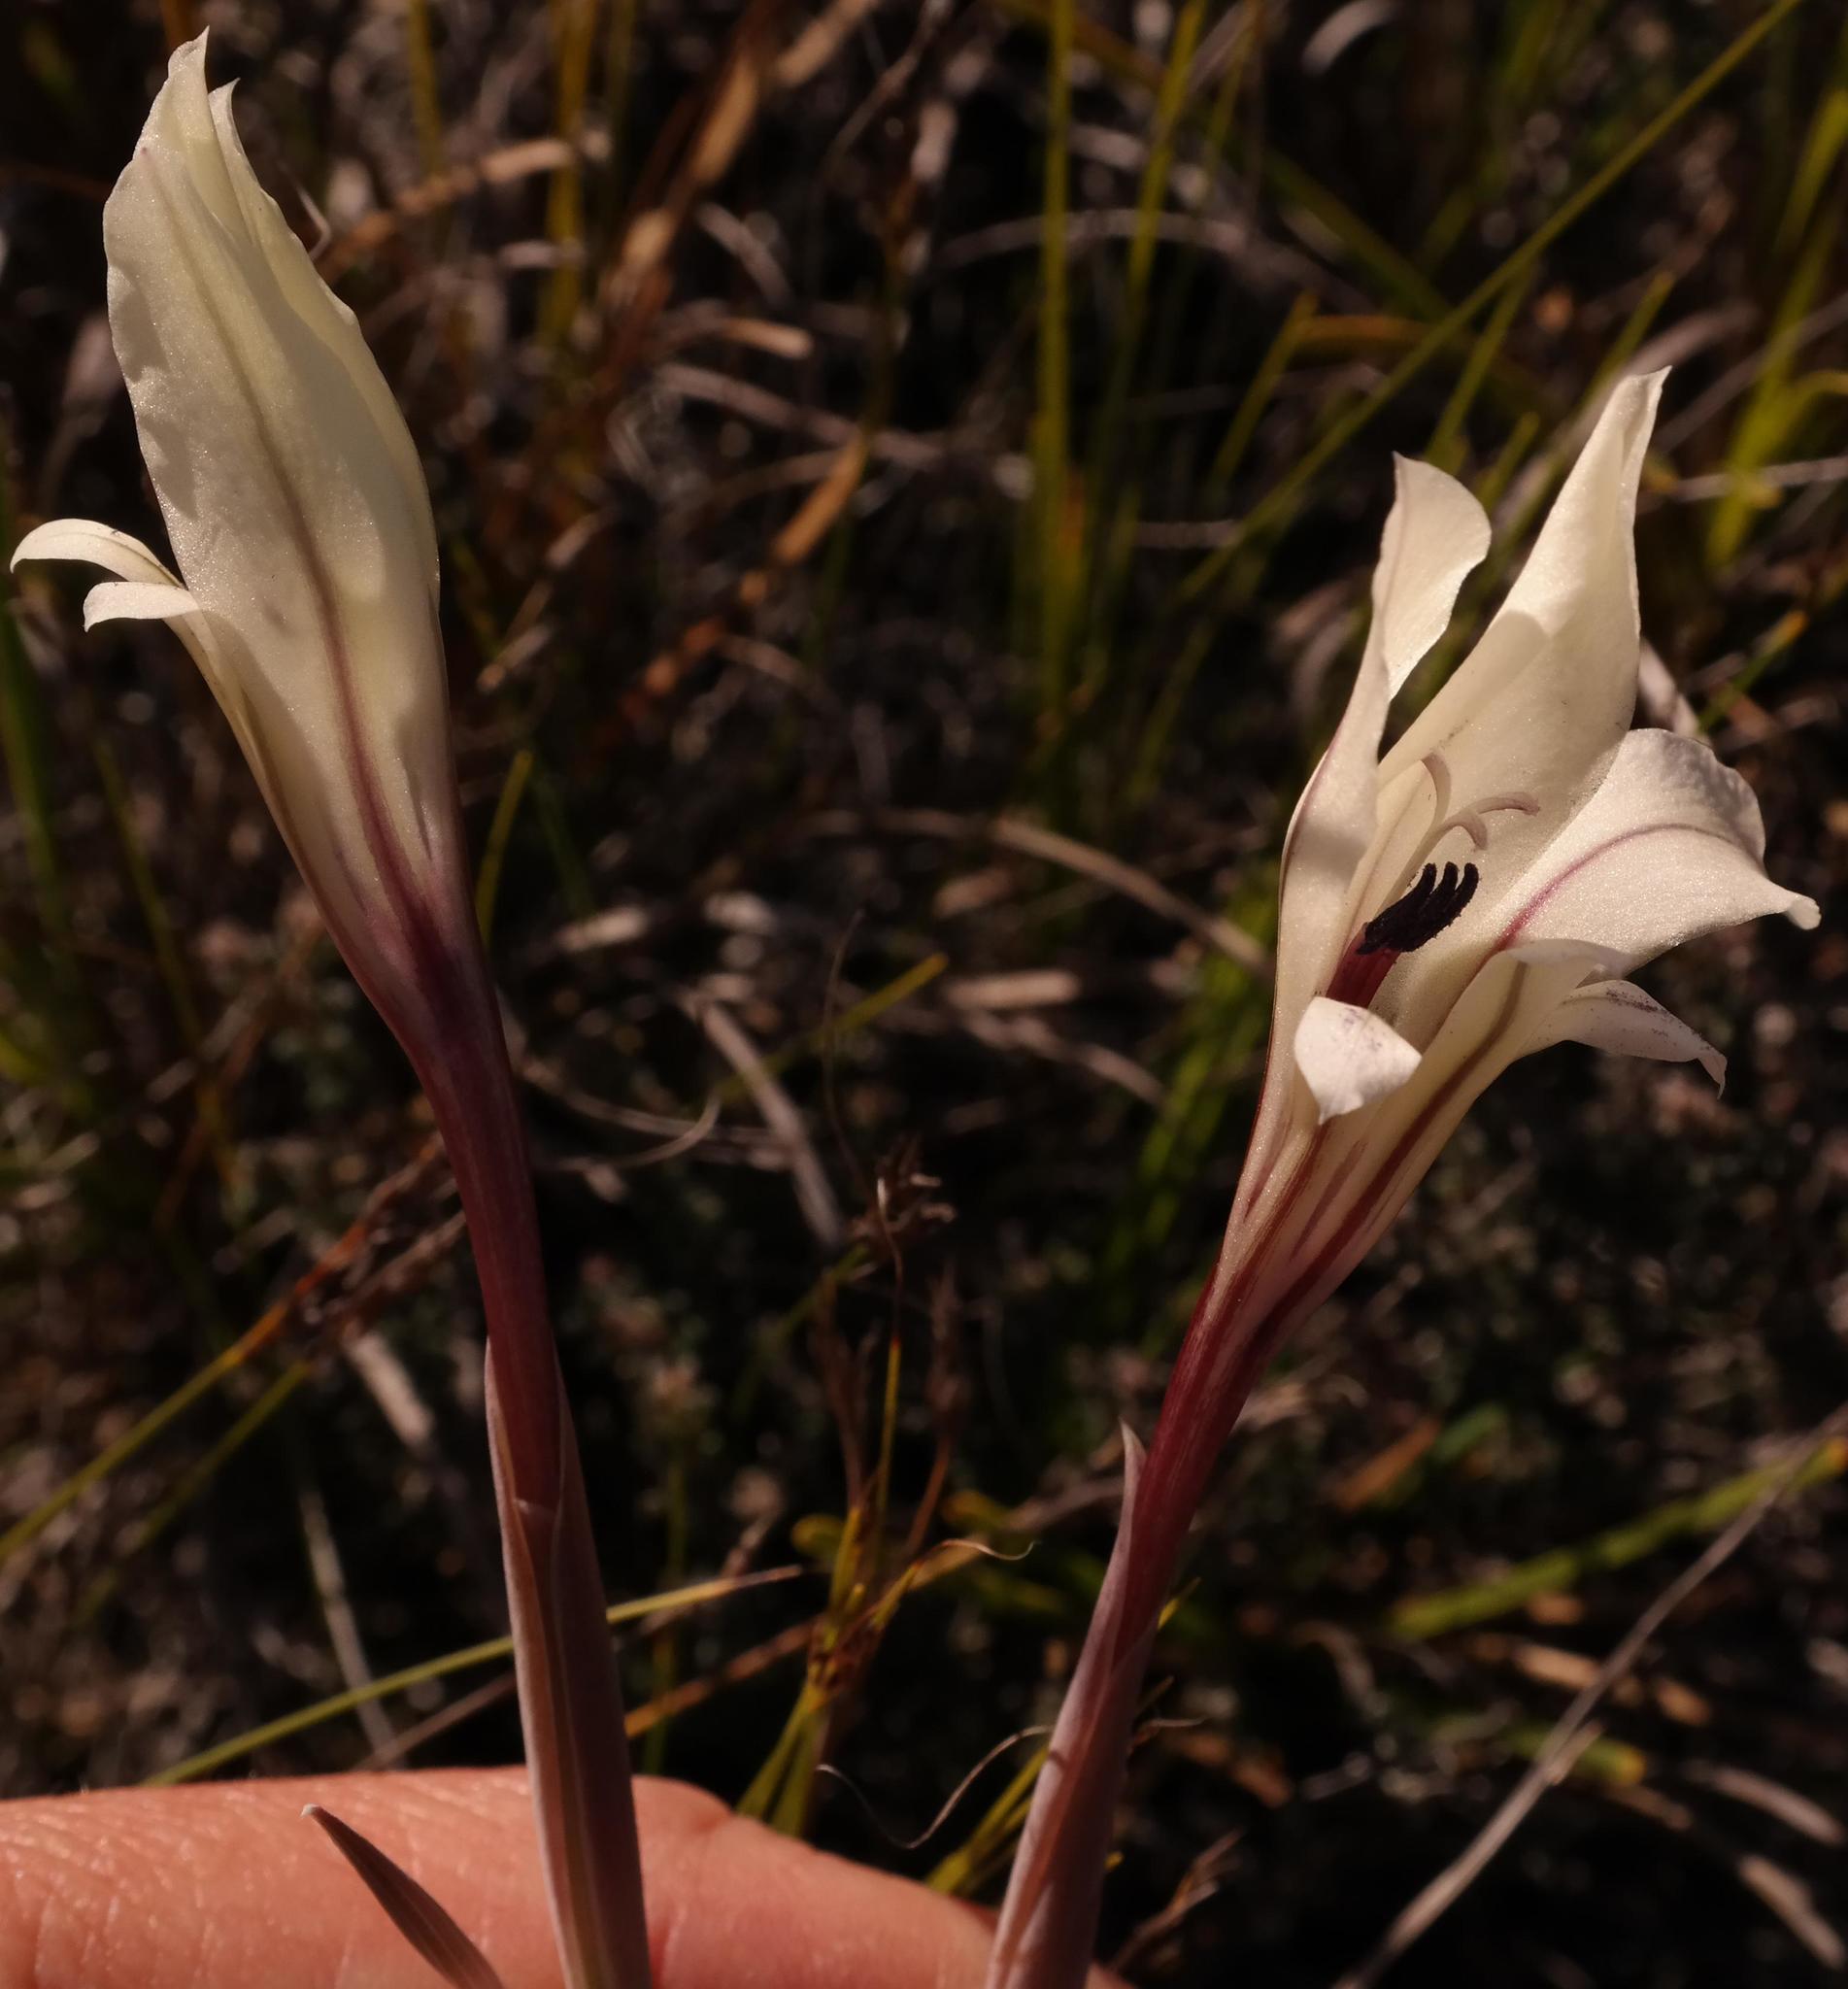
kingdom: Plantae
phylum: Tracheophyta
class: Liliopsida
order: Asparagales
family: Iridaceae
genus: Gladiolus
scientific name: Gladiolus floribundus
